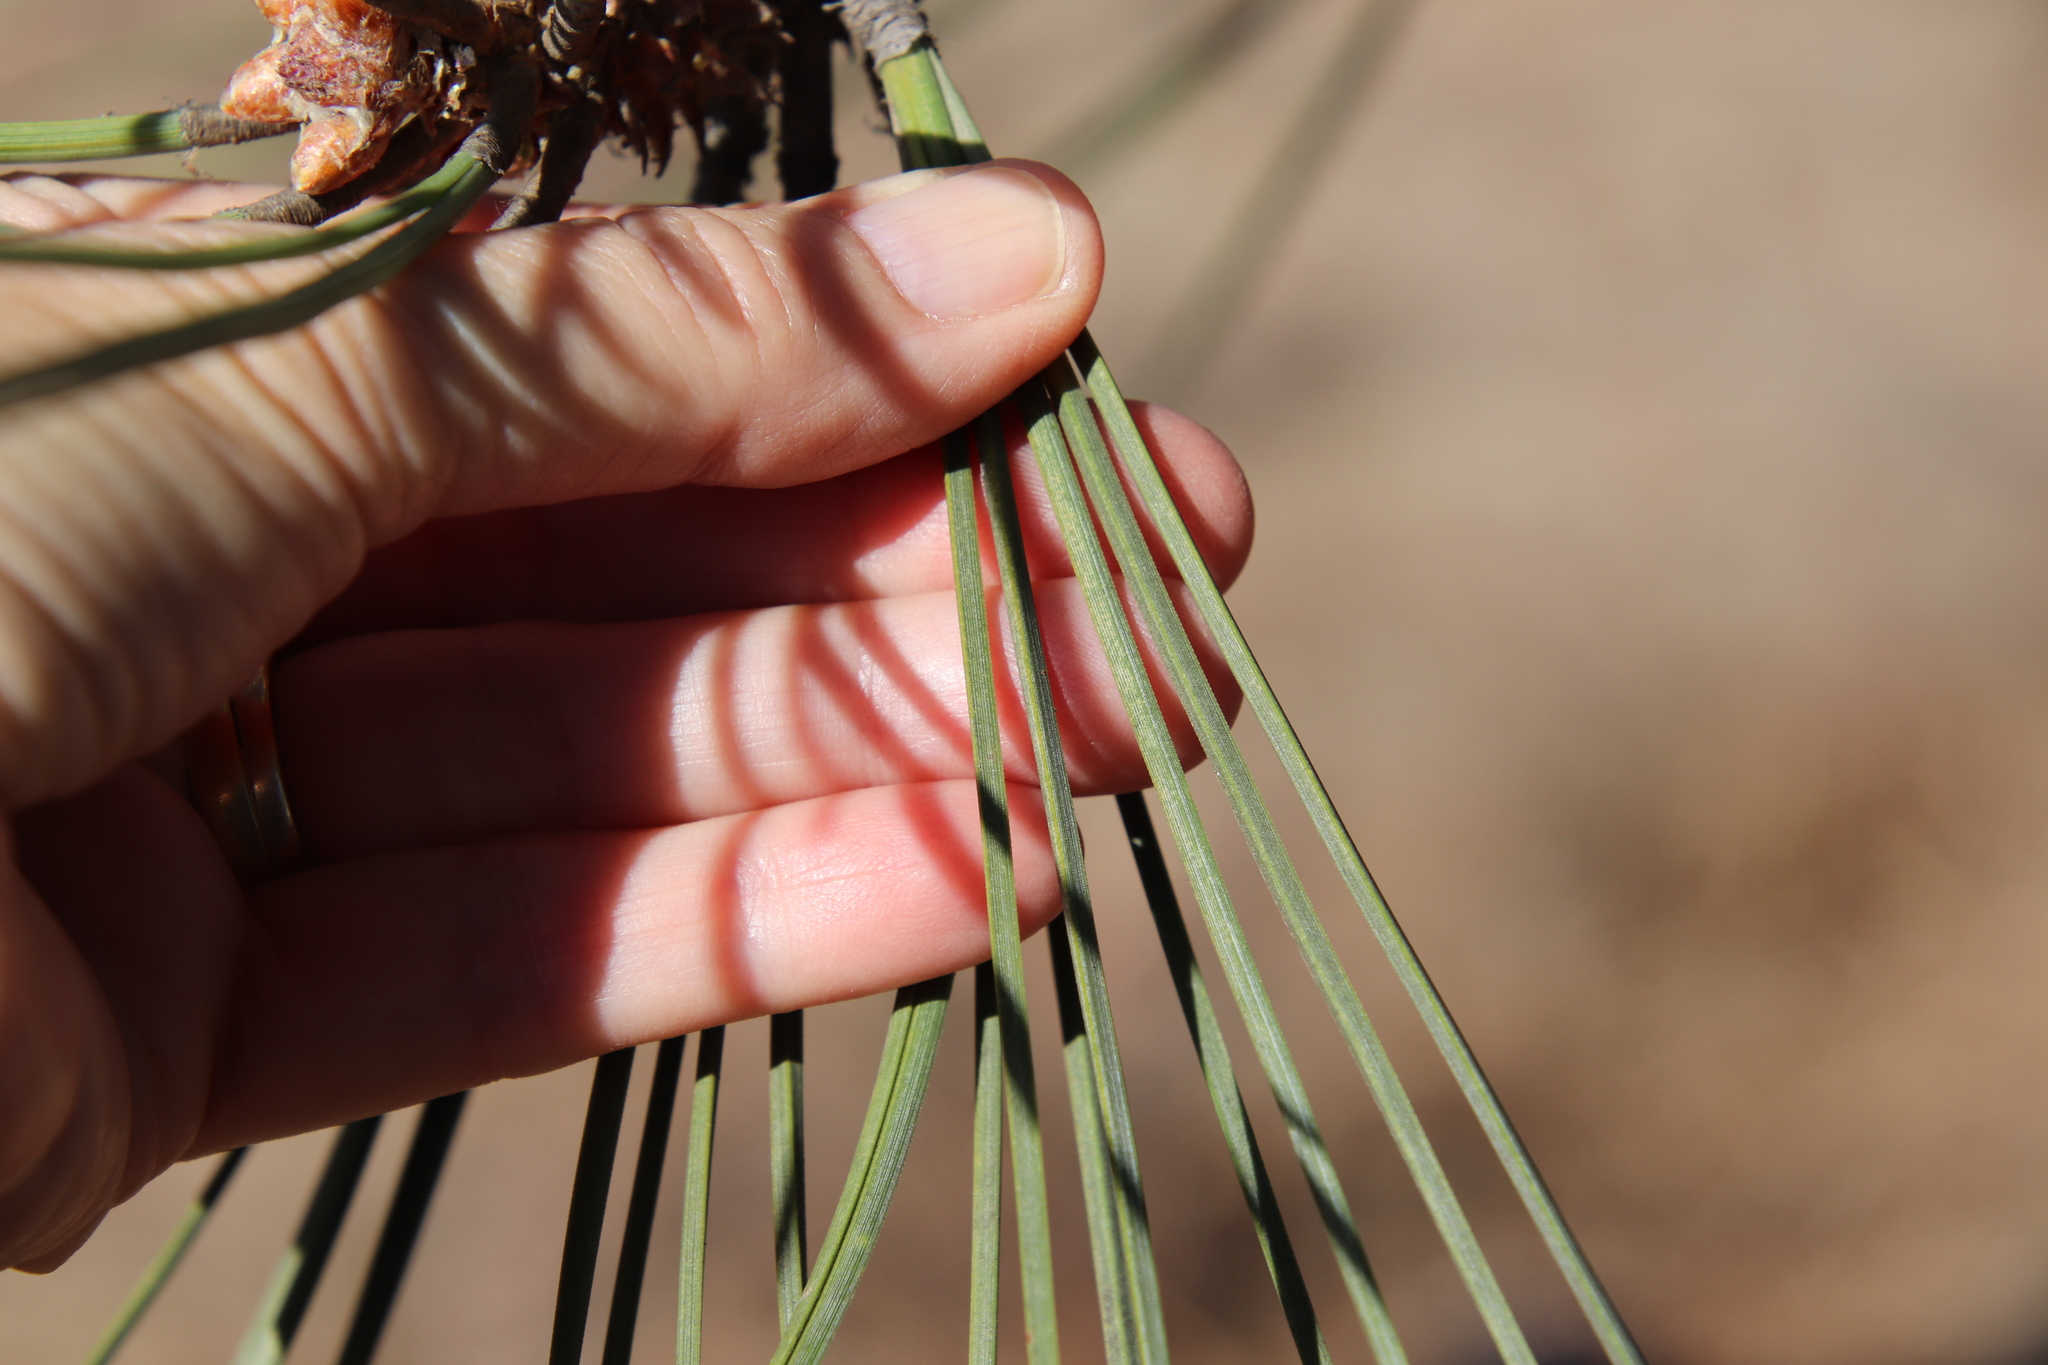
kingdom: Plantae
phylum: Tracheophyta
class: Pinopsida
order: Pinales
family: Pinaceae
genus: Pinus
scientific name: Pinus torreyana
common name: Torrey pine
